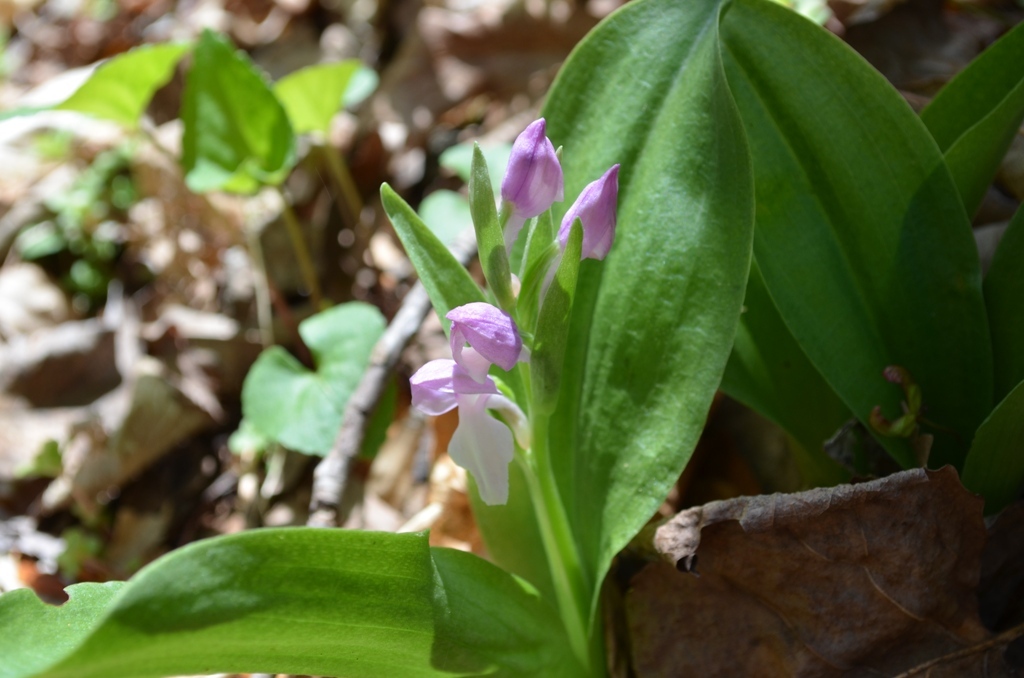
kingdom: Plantae
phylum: Tracheophyta
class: Liliopsida
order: Asparagales
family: Orchidaceae
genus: Galearis
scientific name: Galearis spectabilis
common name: Purple-hooded orchis
